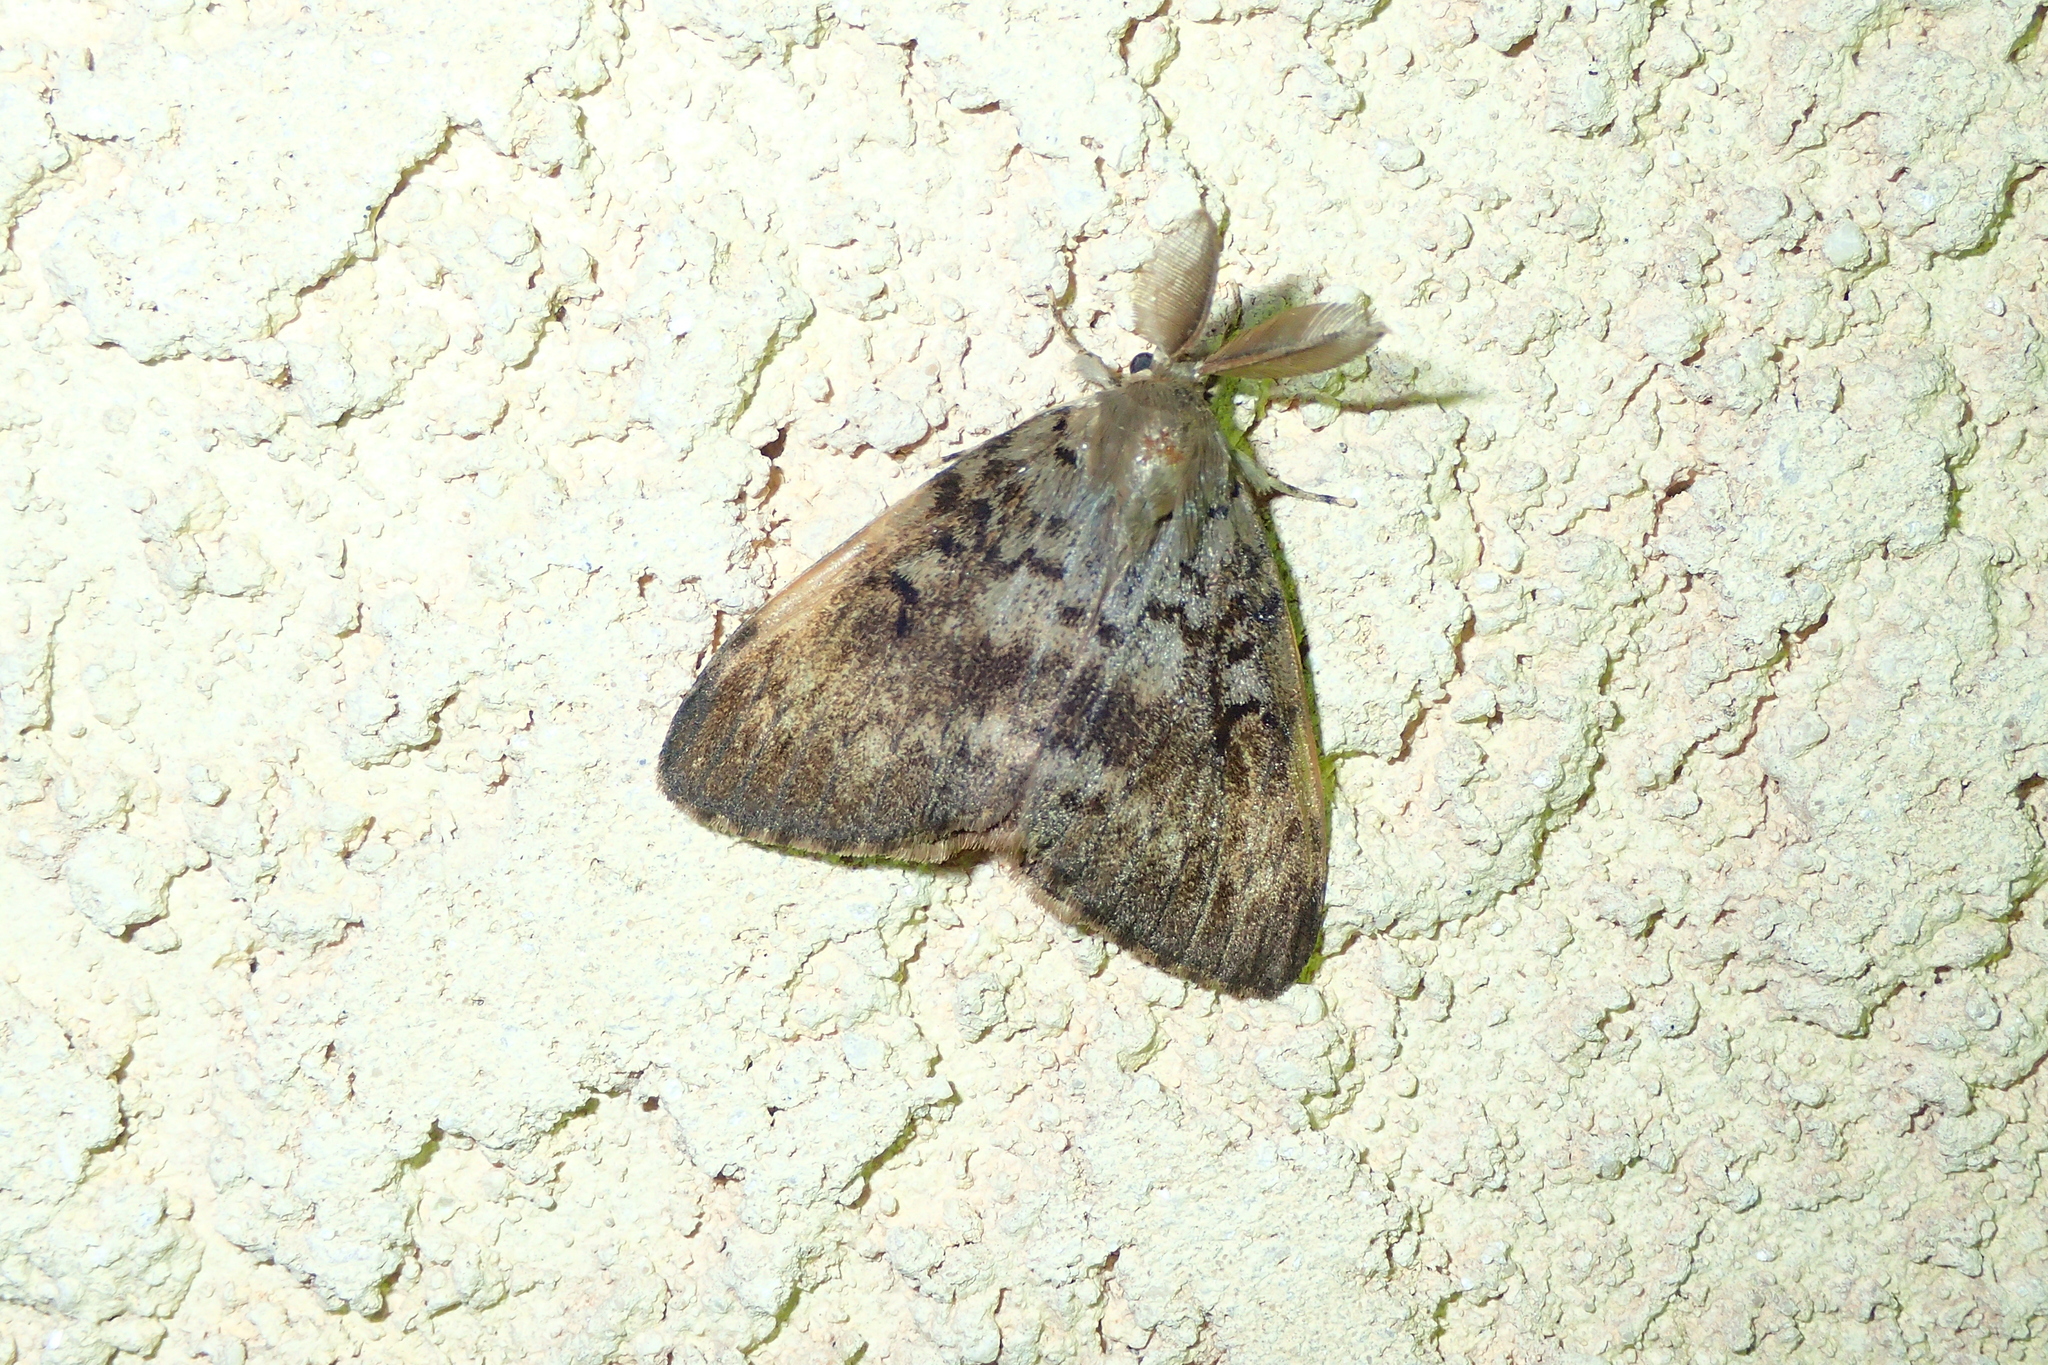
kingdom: Animalia
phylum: Arthropoda
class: Insecta
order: Lepidoptera
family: Erebidae
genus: Lymantria
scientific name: Lymantria dispar
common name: Gypsy moth
